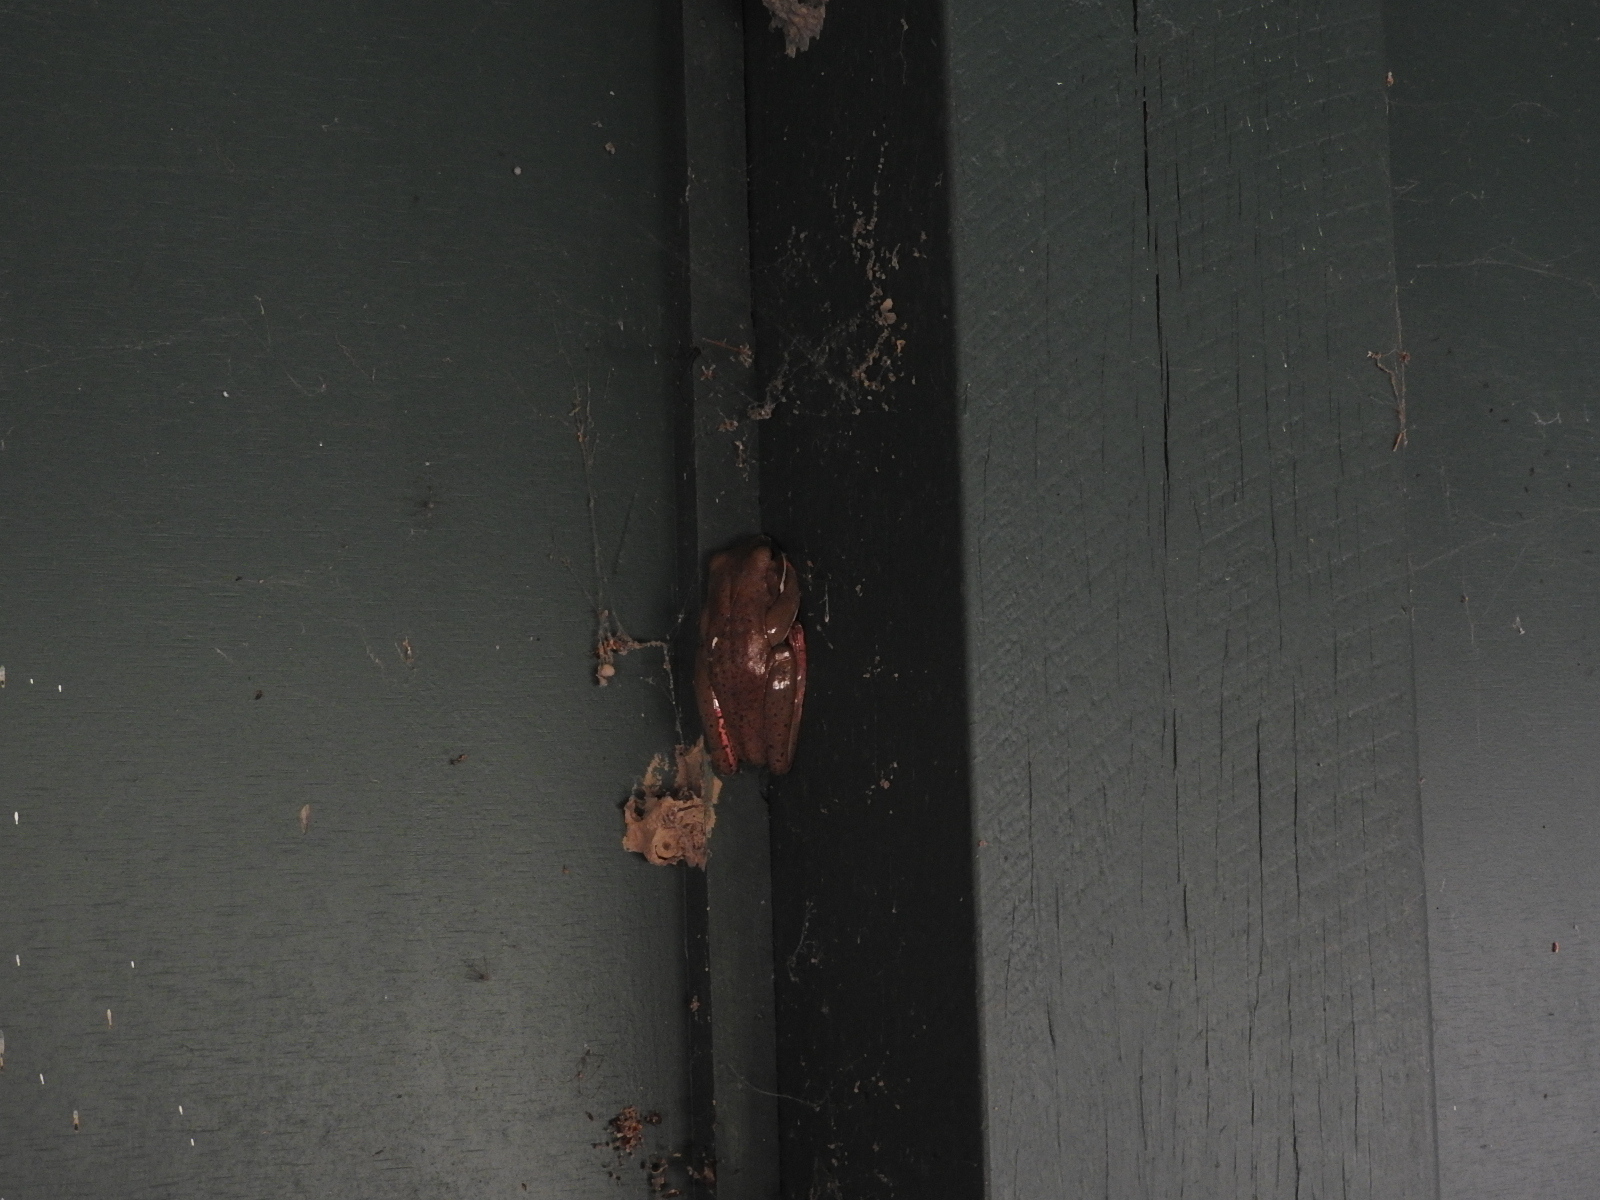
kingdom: Animalia
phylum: Chordata
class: Amphibia
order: Anura
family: Pelodryadidae
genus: Nyctimystes
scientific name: Nyctimystes infrafrenatus
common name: Australian giant treefrog
